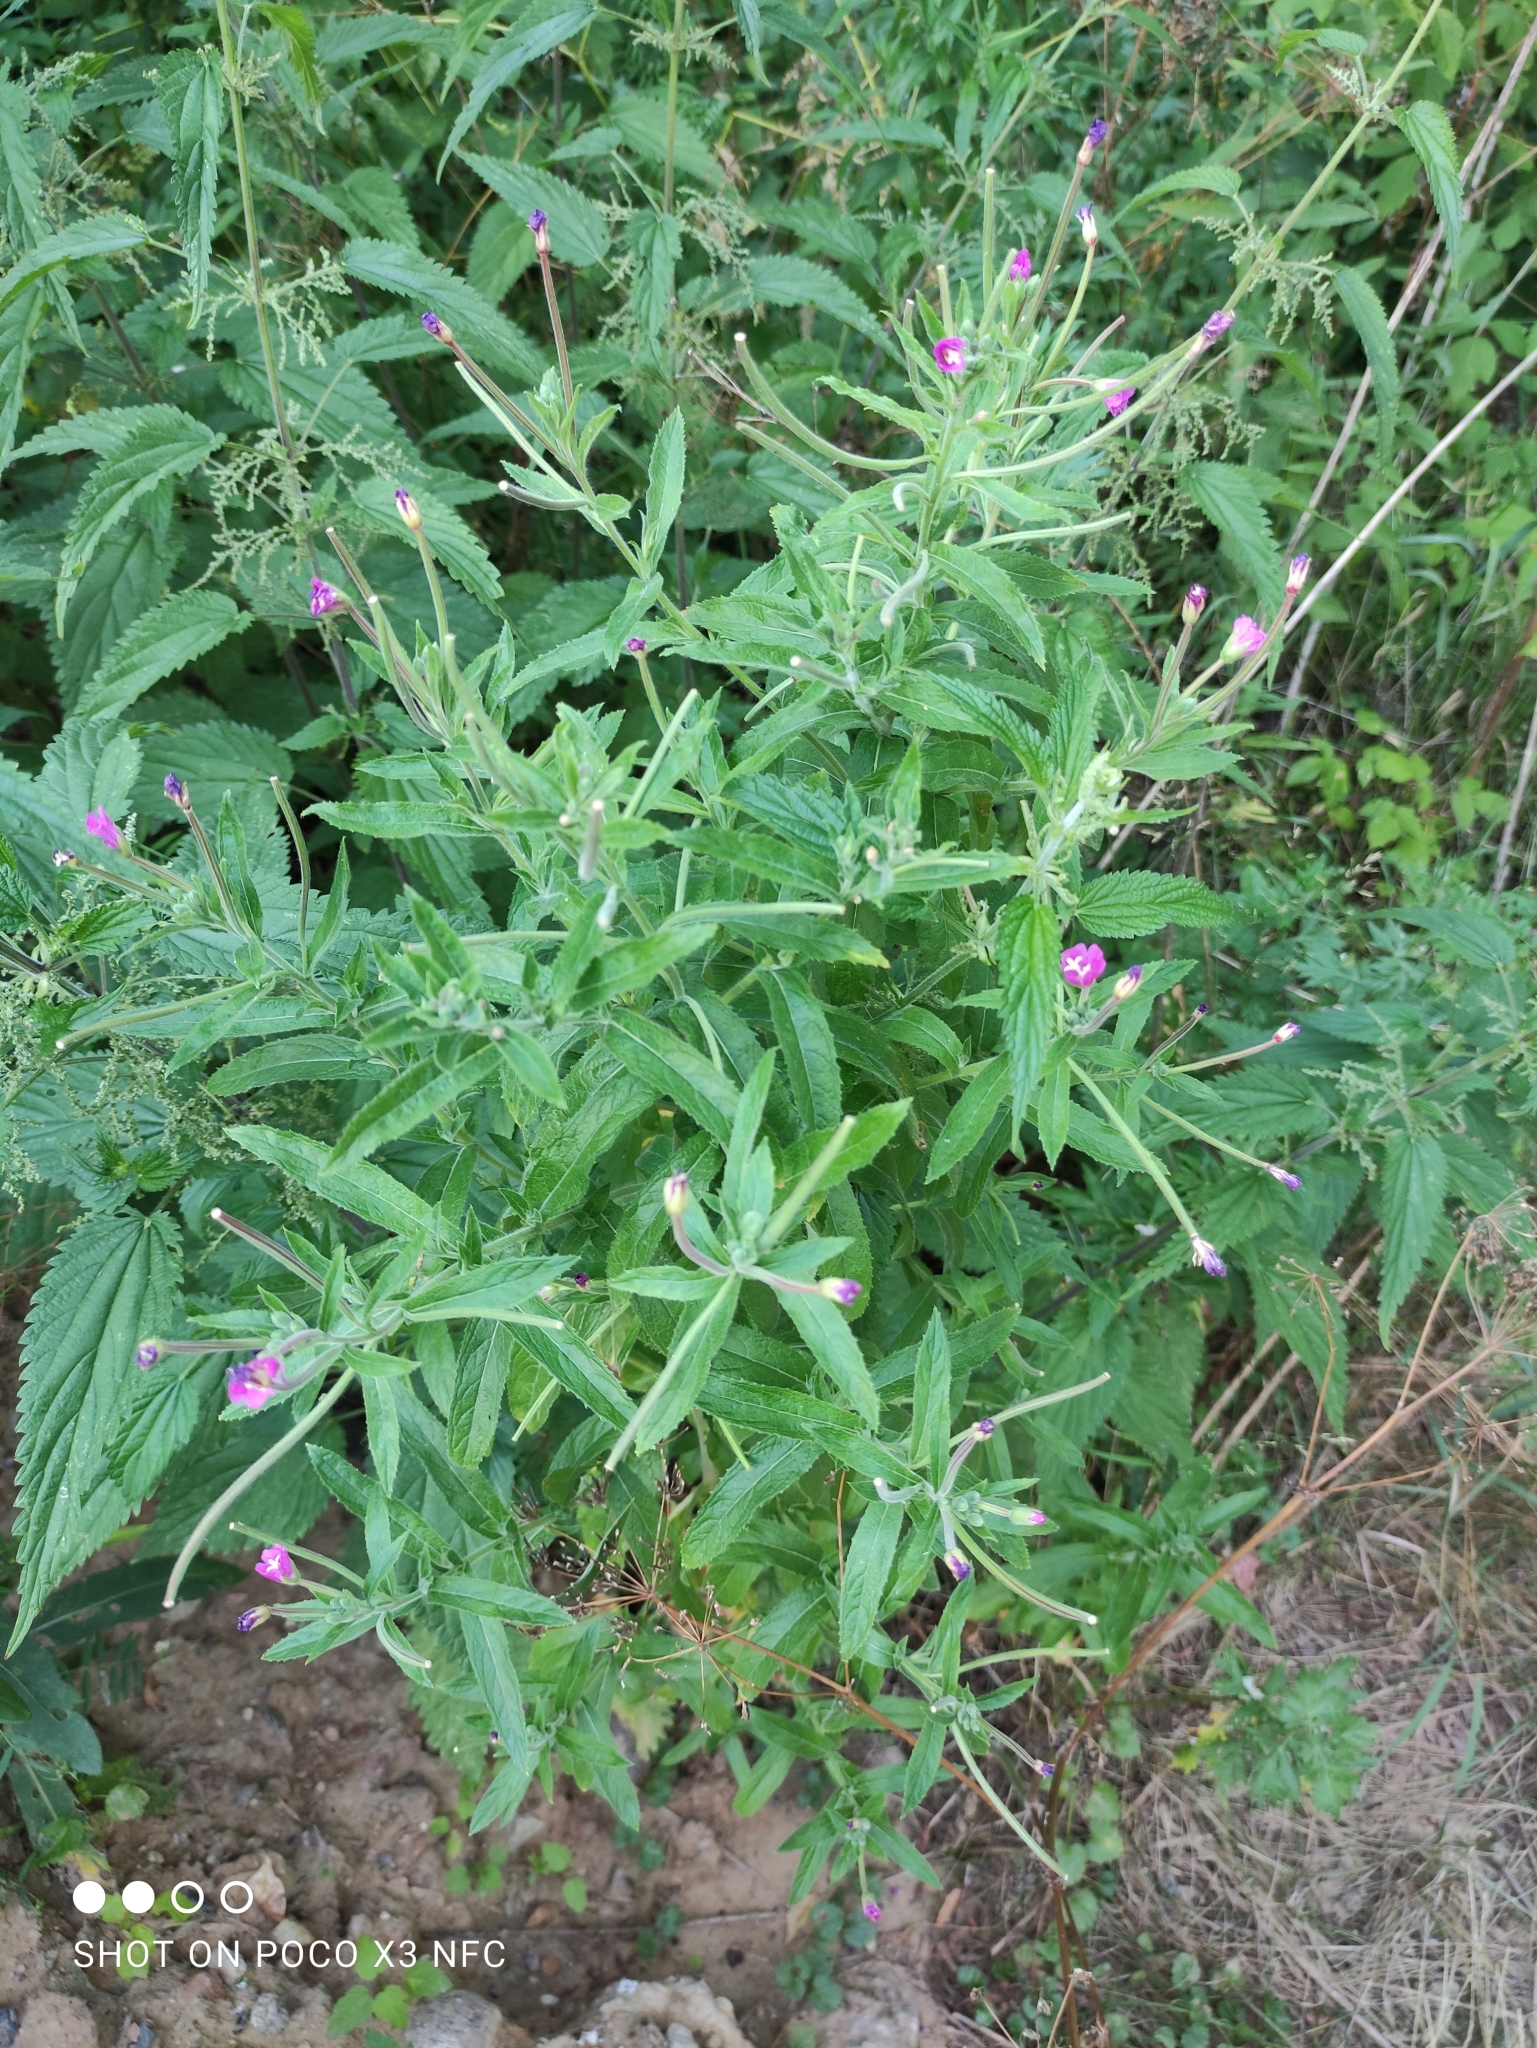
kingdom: Plantae
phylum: Tracheophyta
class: Magnoliopsida
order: Myrtales
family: Onagraceae
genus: Epilobium
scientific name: Epilobium hirsutum
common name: Great willowherb
